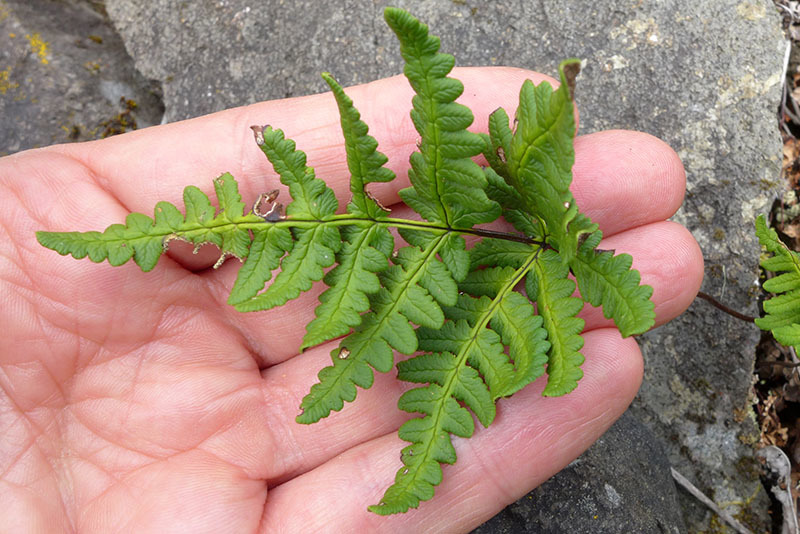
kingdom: Plantae
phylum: Tracheophyta
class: Polypodiopsida
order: Polypodiales
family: Pteridaceae
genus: Pentagramma
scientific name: Pentagramma triangularis
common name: Gold fern
